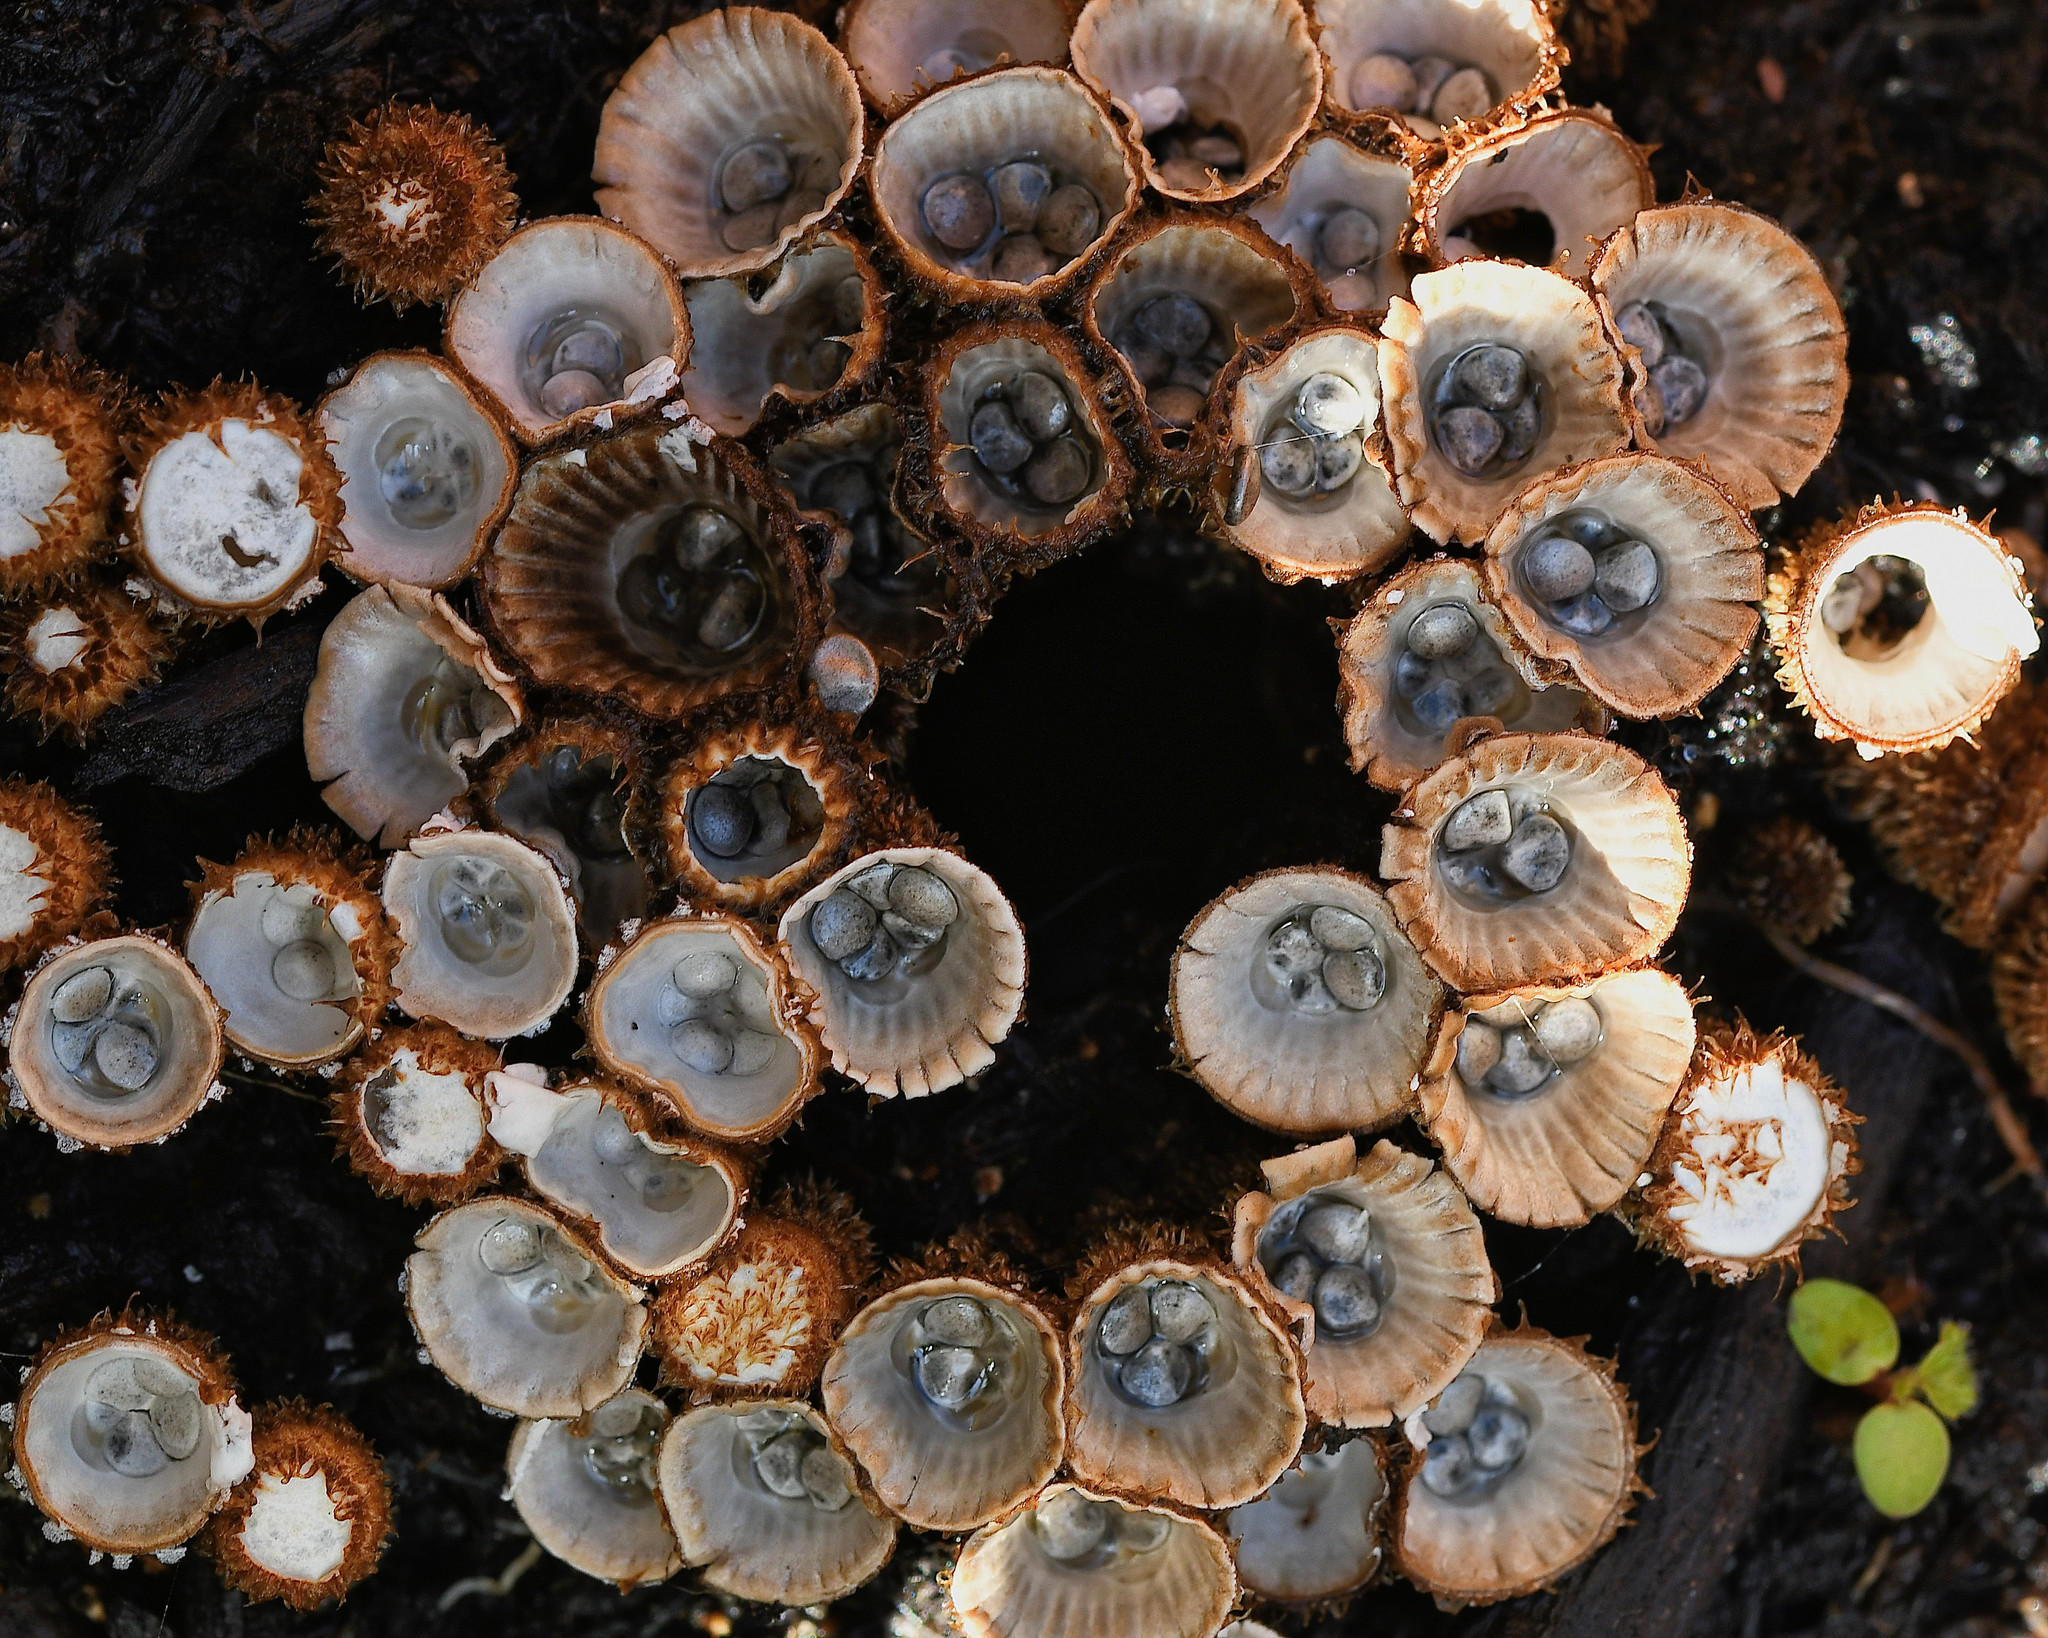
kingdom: Fungi
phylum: Basidiomycota
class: Agaricomycetes
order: Agaricales
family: Agaricaceae
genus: Cyathus
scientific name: Cyathus striatus
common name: Fluted bird's nest
